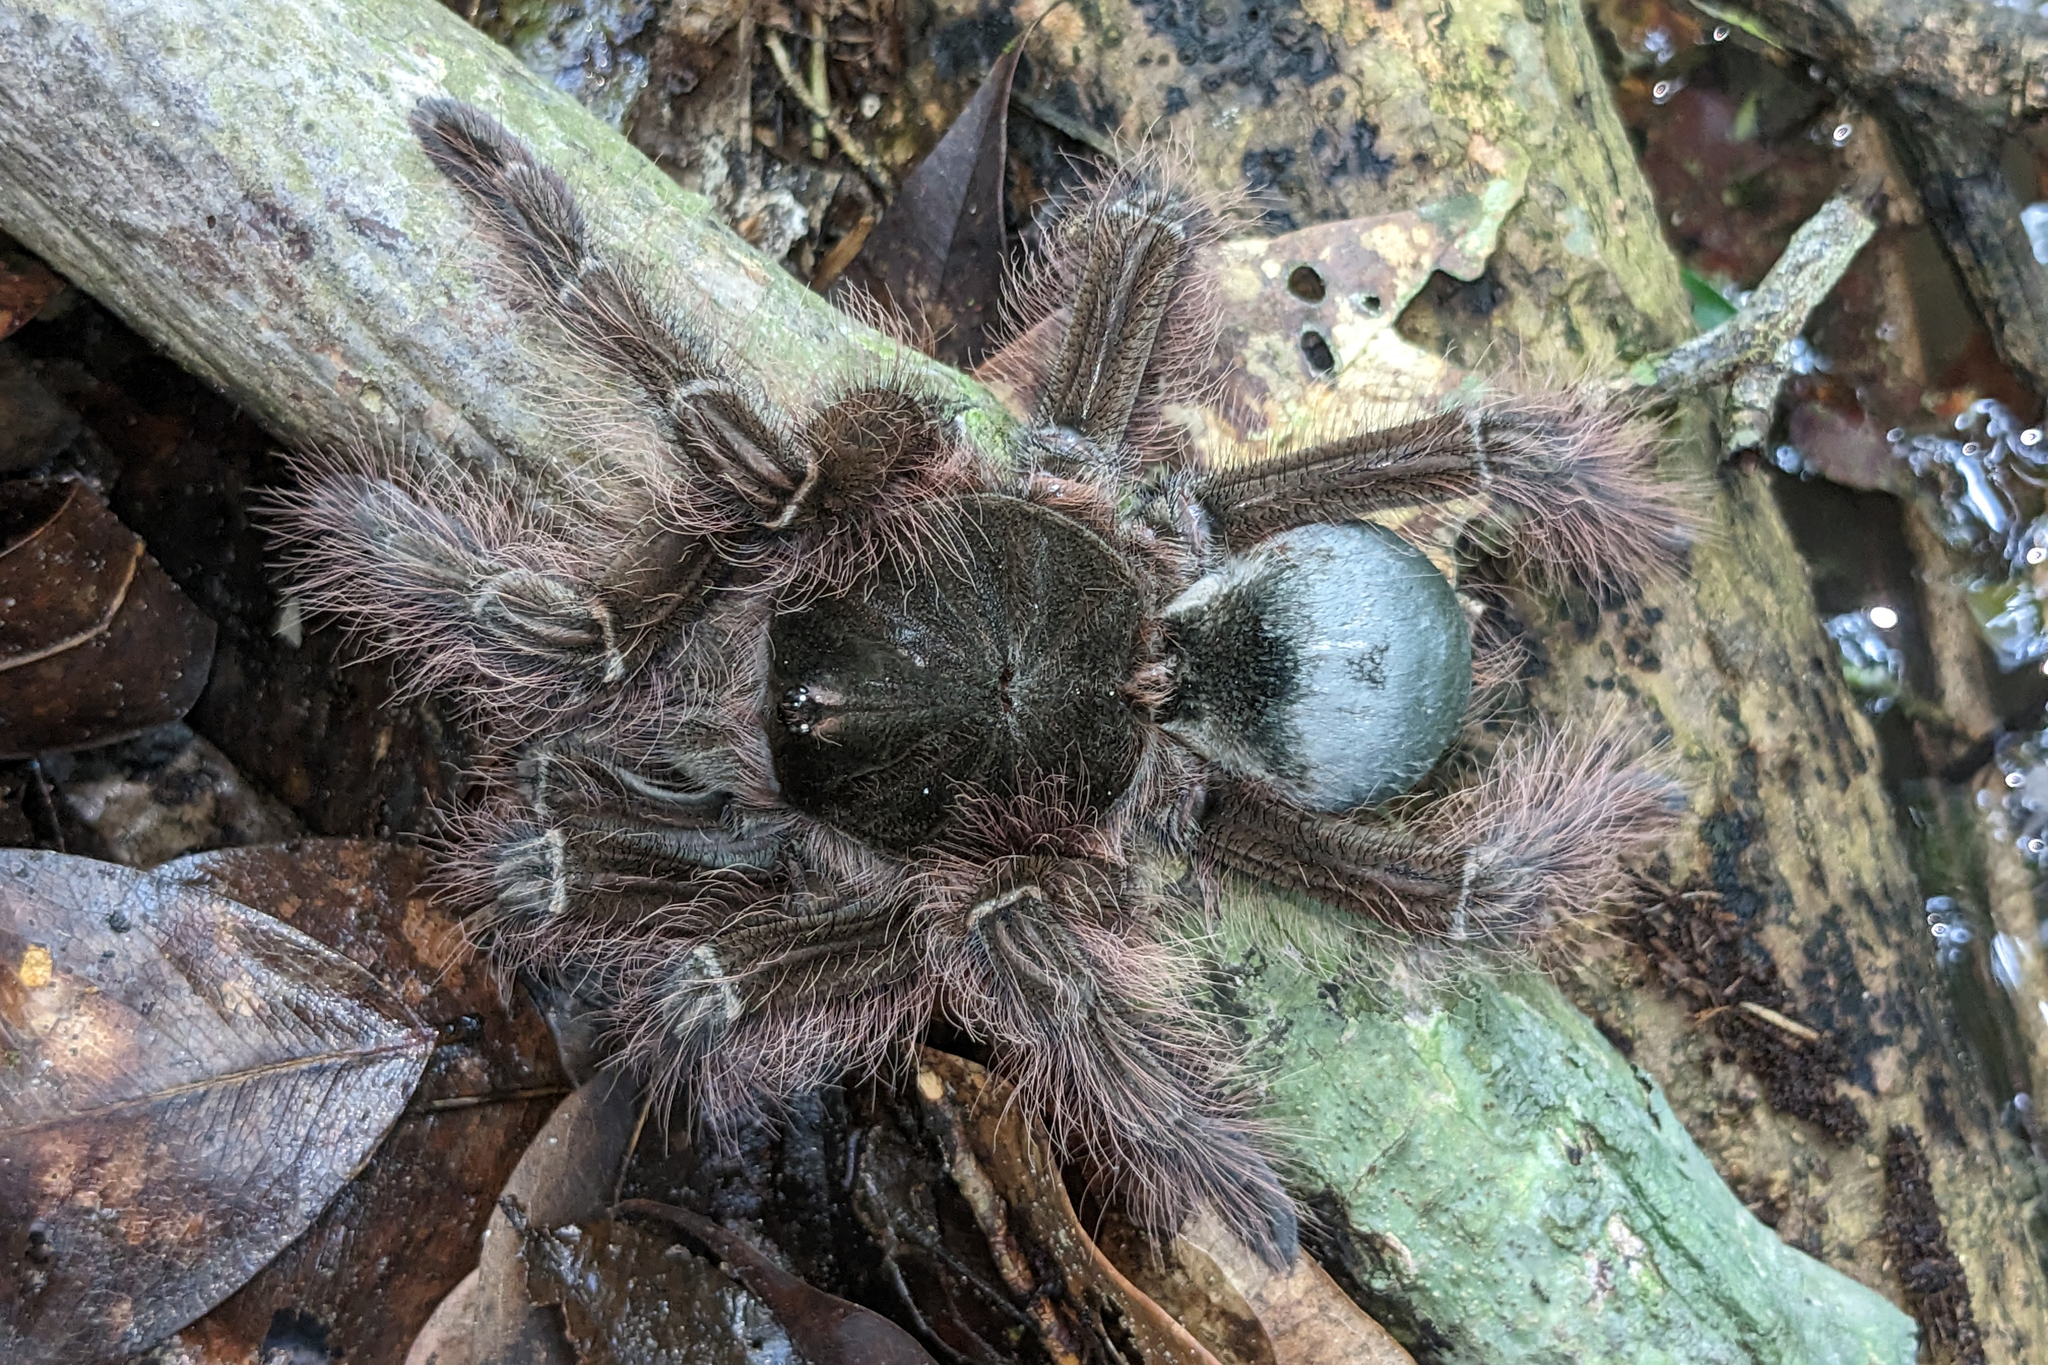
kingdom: Animalia
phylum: Arthropoda
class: Arachnida
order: Araneae
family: Theraphosidae
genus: Theraphosa
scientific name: Theraphosa blondi
